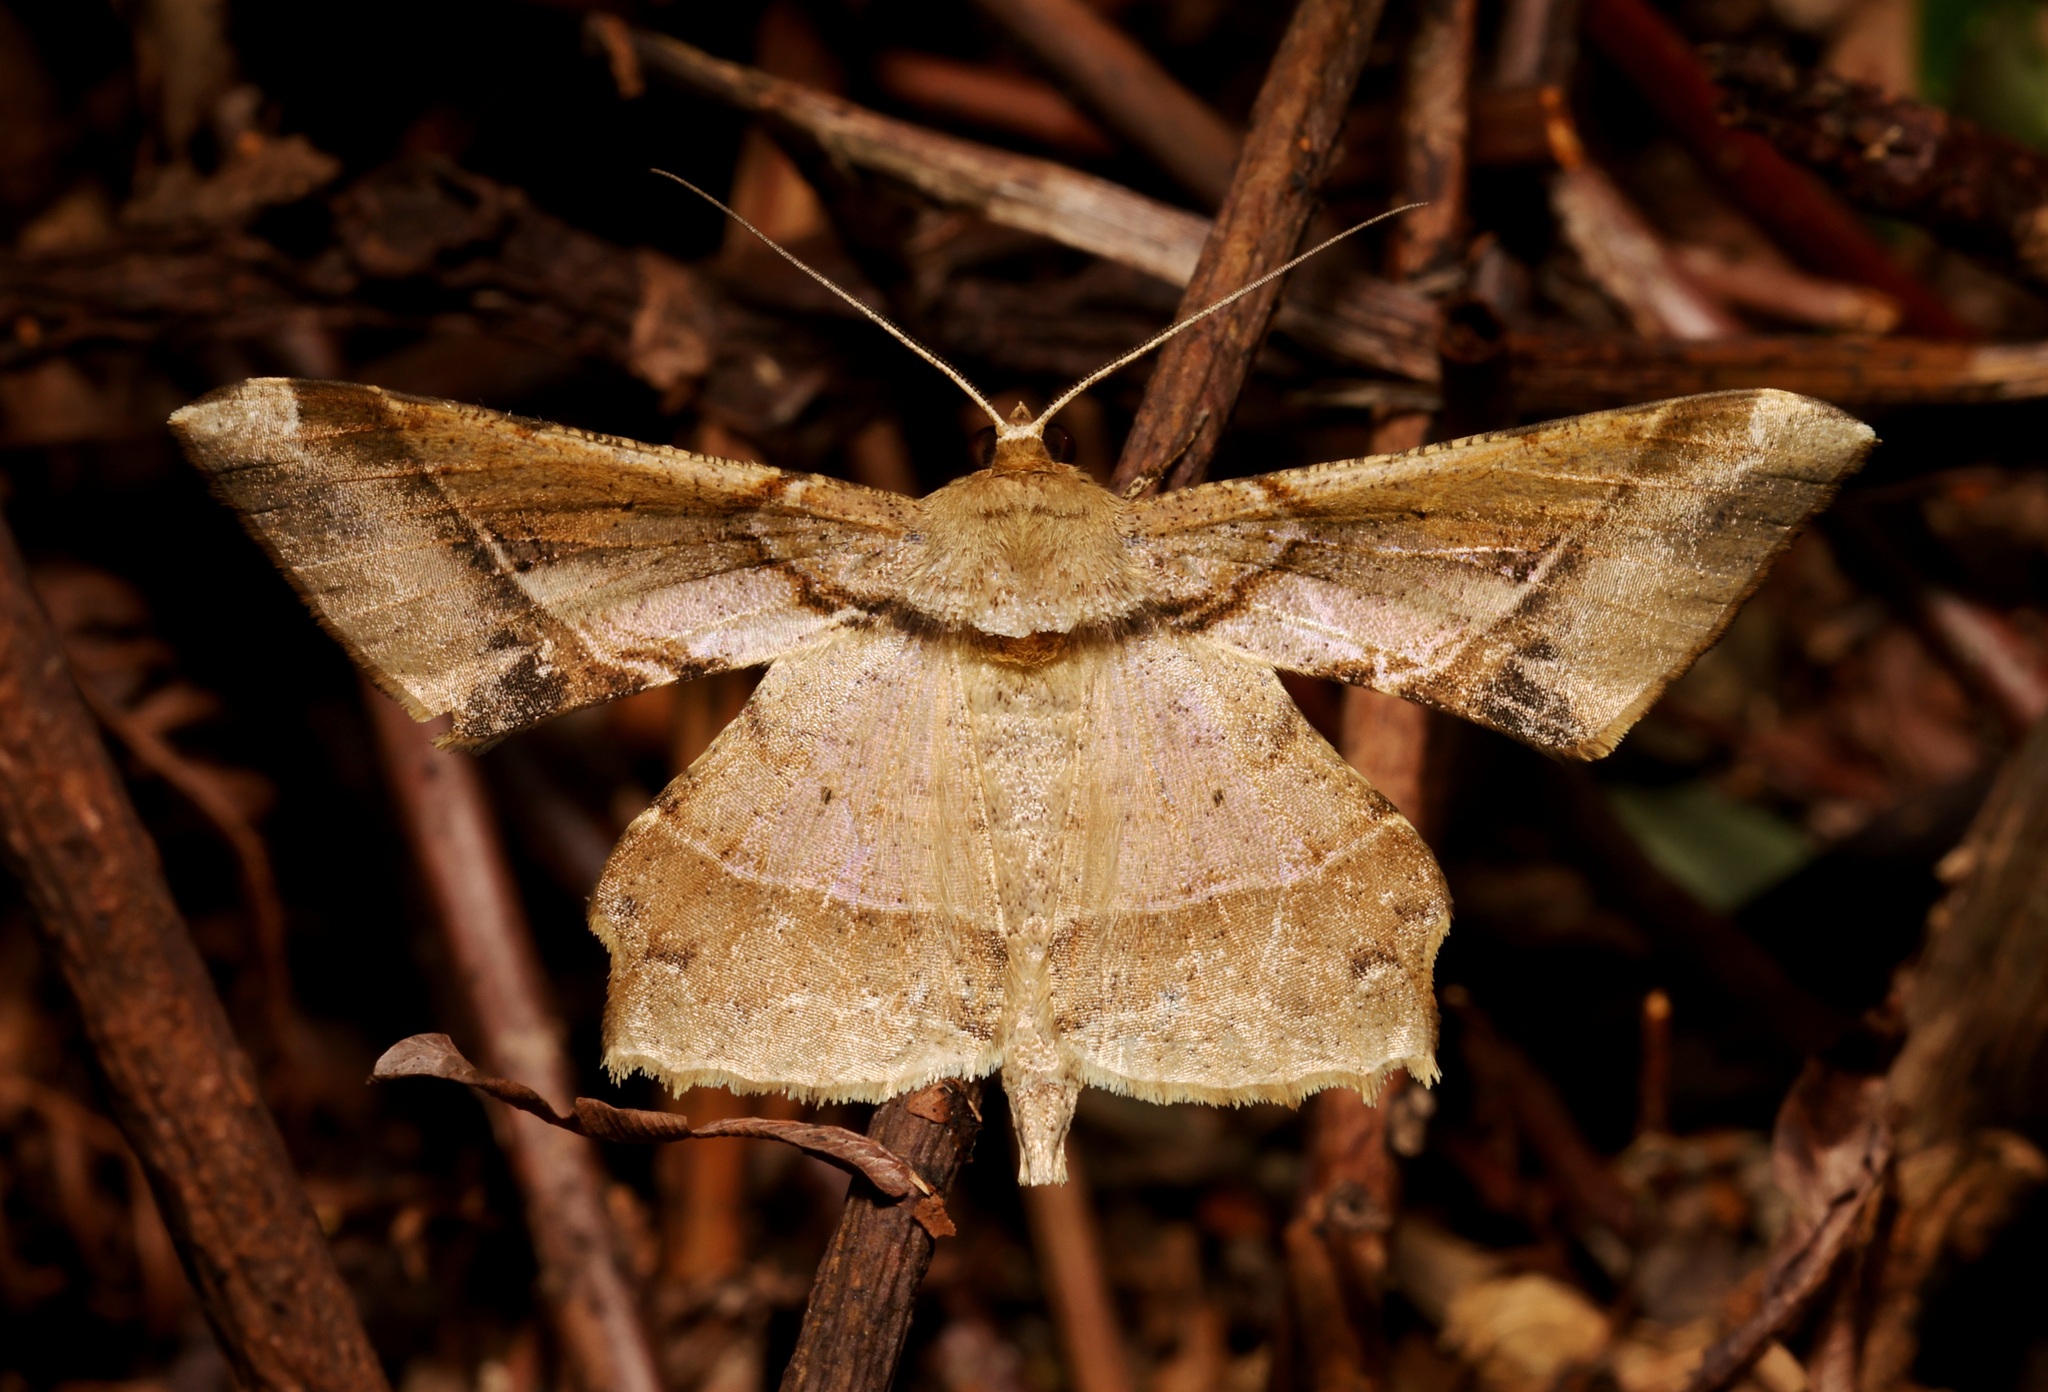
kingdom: Animalia
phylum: Arthropoda
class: Insecta
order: Lepidoptera
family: Geometridae
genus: Krananda
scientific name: Krananda latimarginaria
